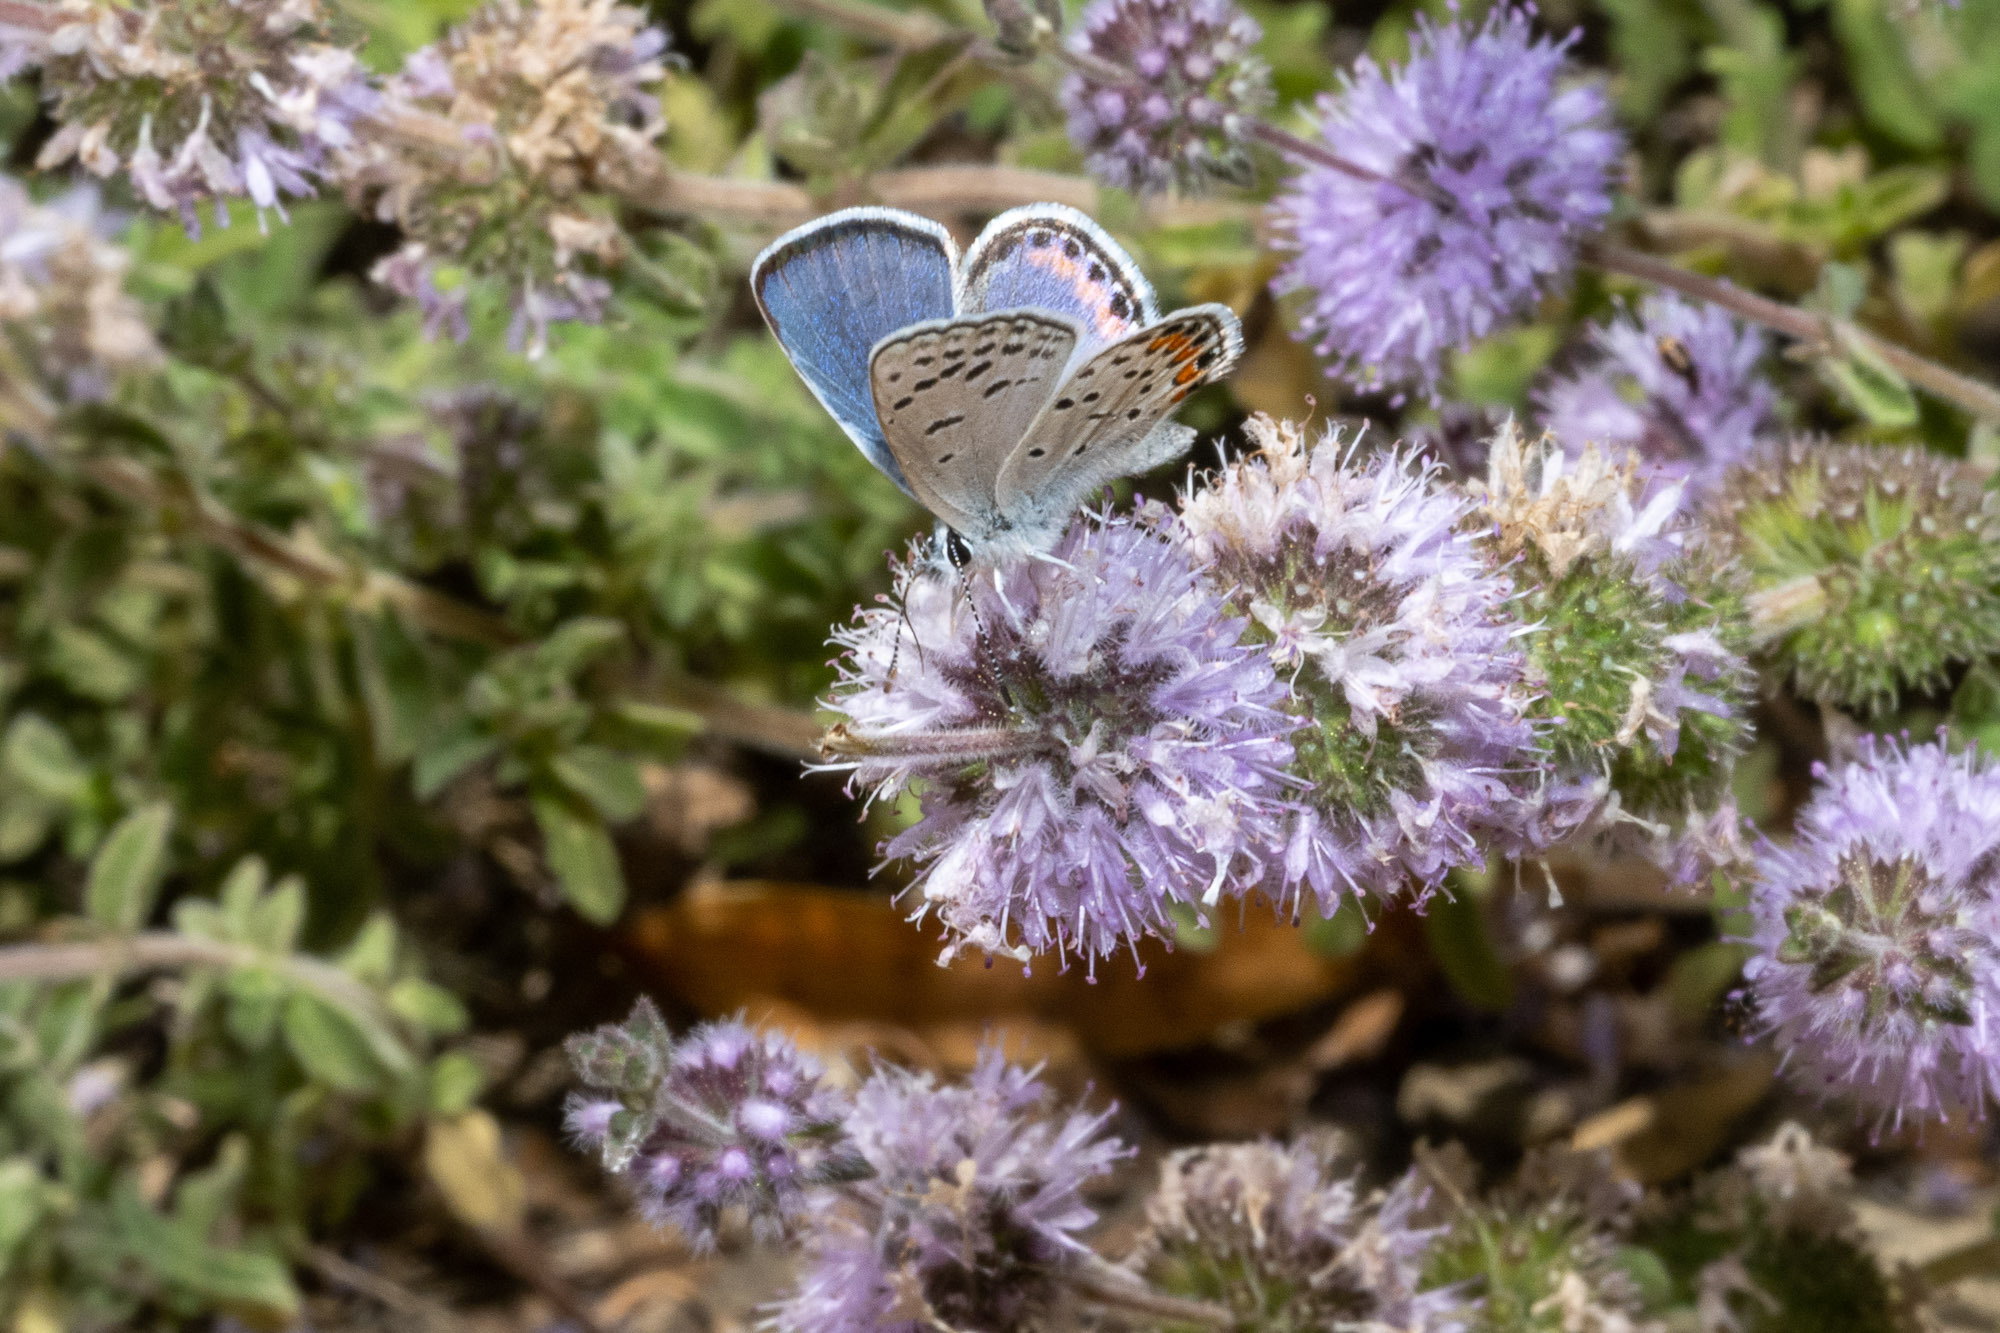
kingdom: Animalia
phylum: Arthropoda
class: Insecta
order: Lepidoptera
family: Lycaenidae
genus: Icaricia
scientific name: Icaricia acmon
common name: Acmon blue
